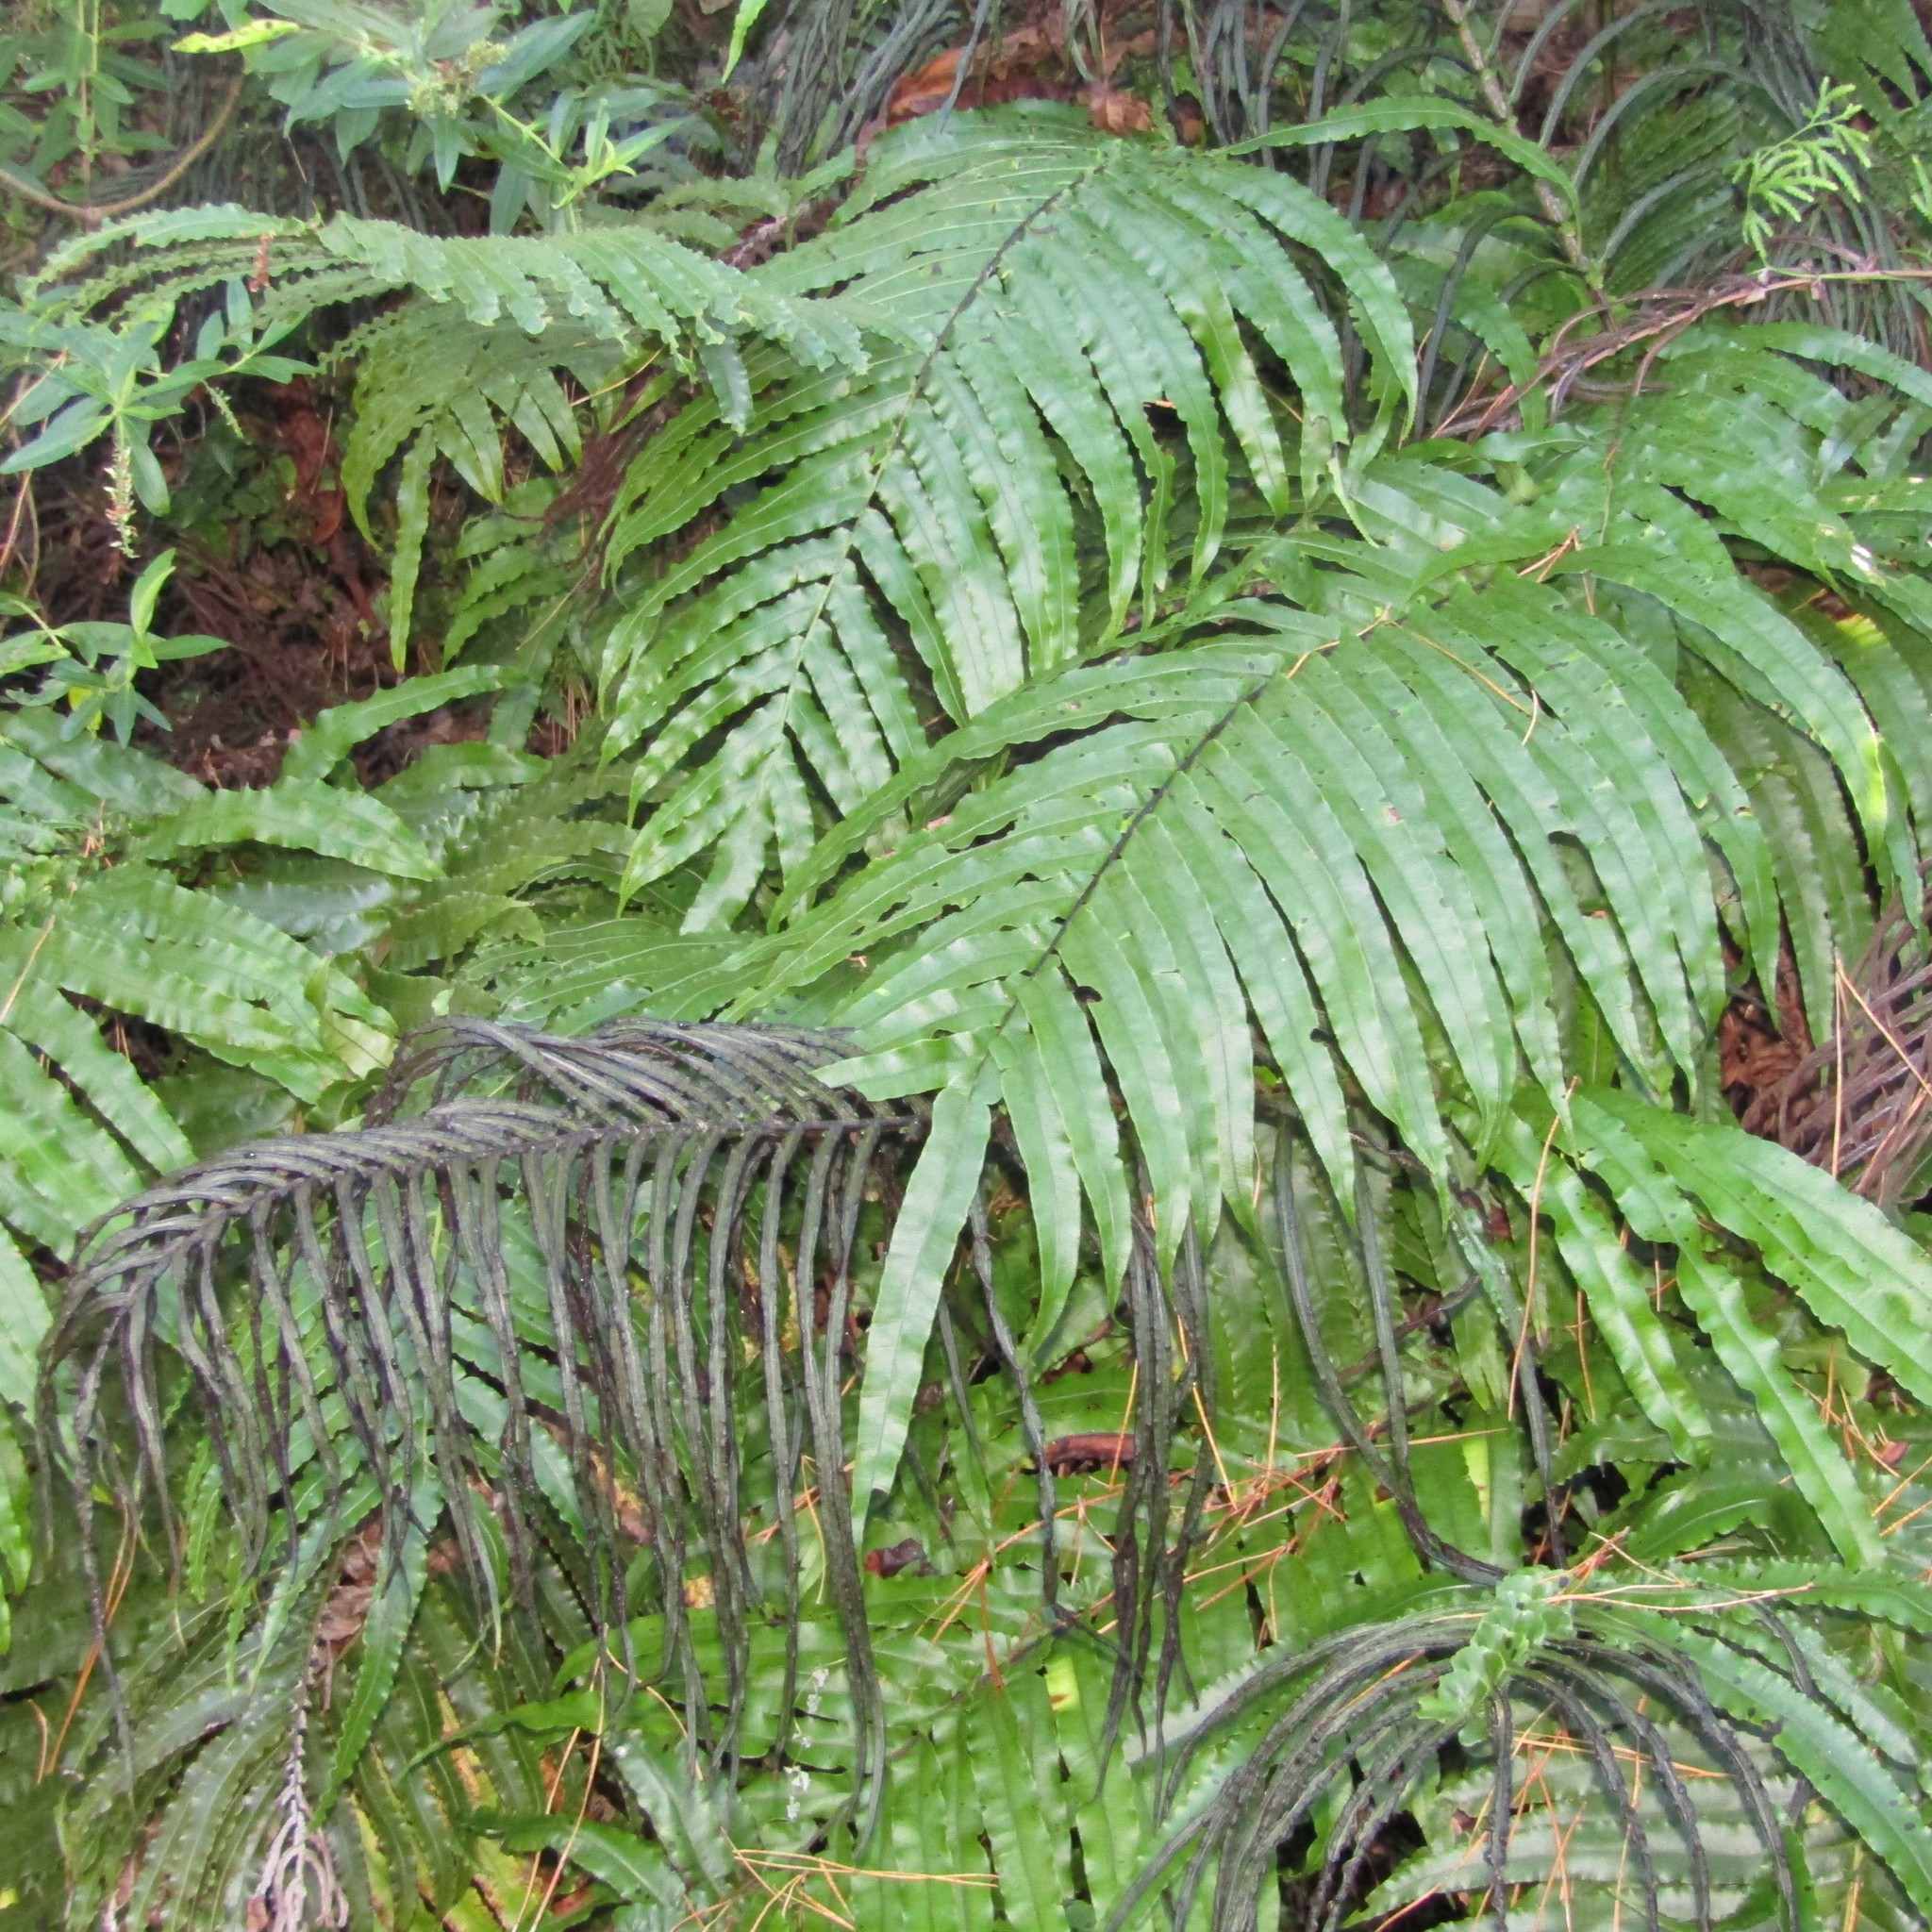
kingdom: Plantae
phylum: Tracheophyta
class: Polypodiopsida
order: Polypodiales
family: Blechnaceae
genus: Parablechnum
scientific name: Parablechnum novae-zelandiae
